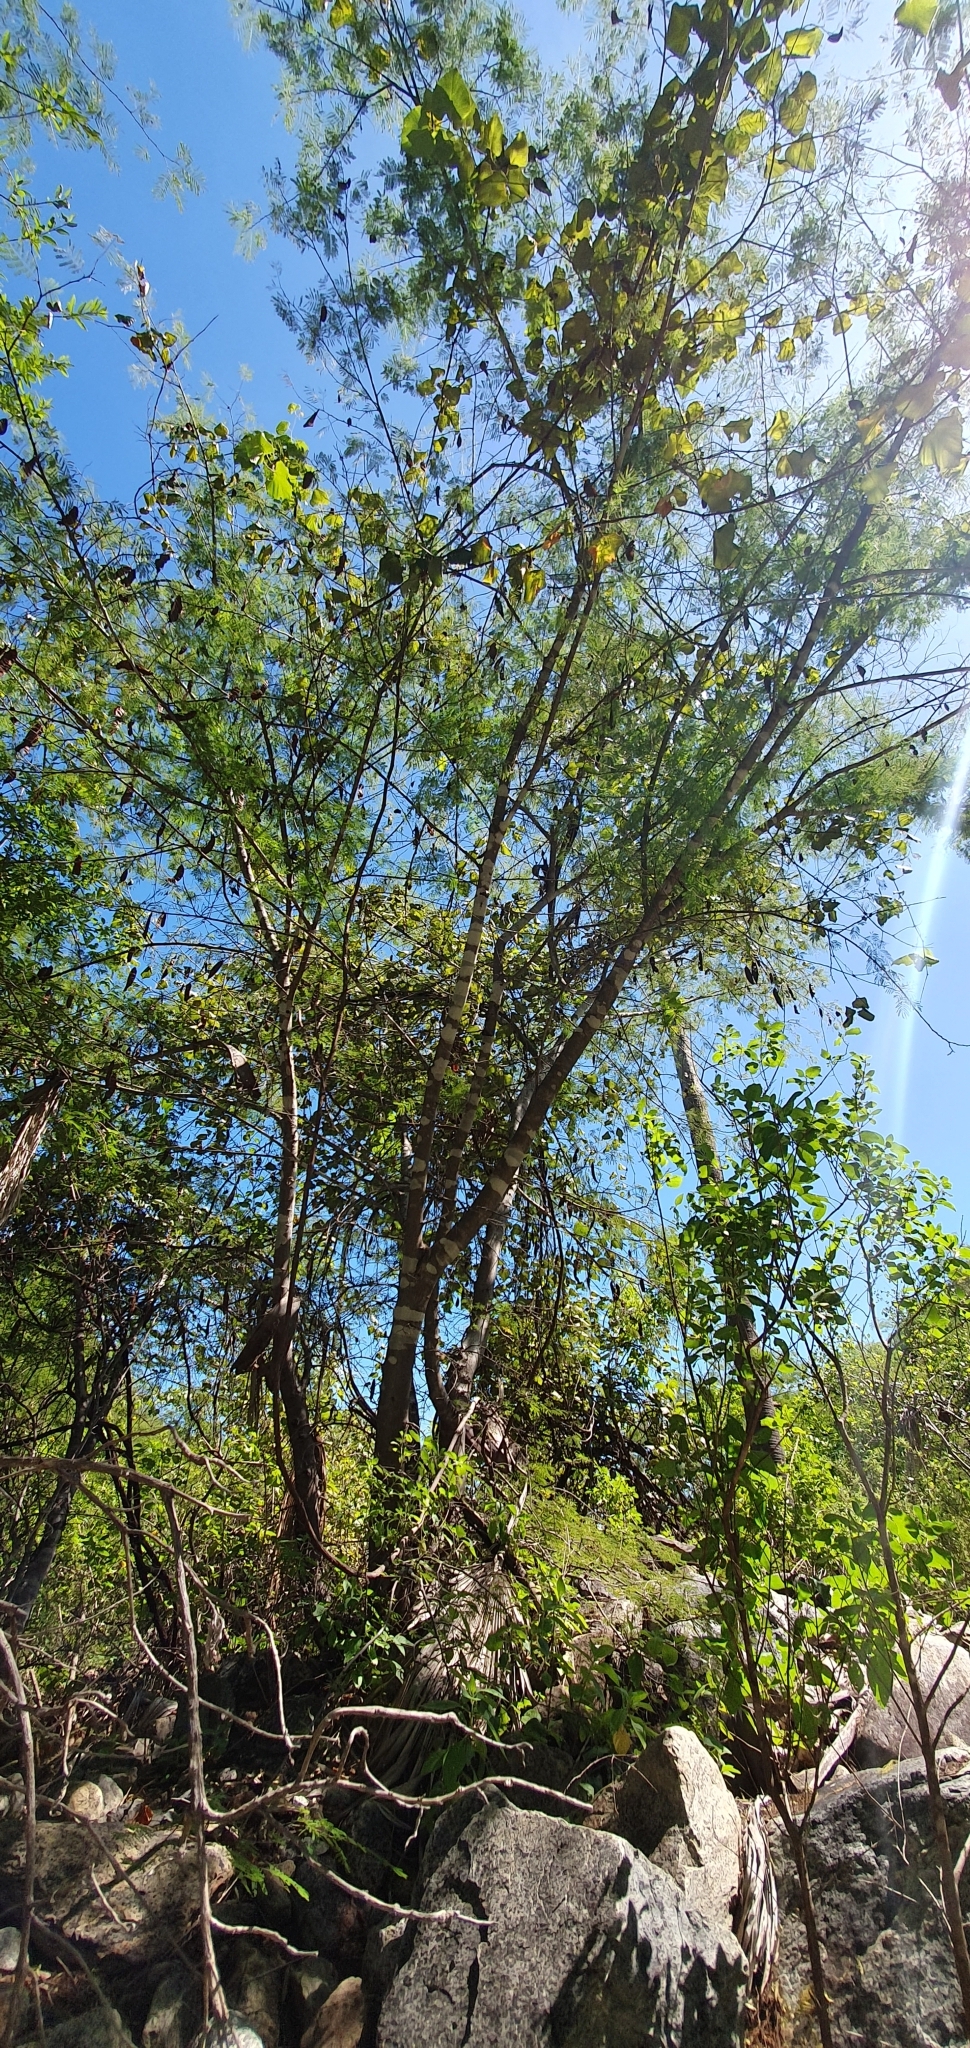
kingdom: Plantae
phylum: Tracheophyta
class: Magnoliopsida
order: Fabales
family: Fabaceae
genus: Lysiloma
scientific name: Lysiloma divaricatum
